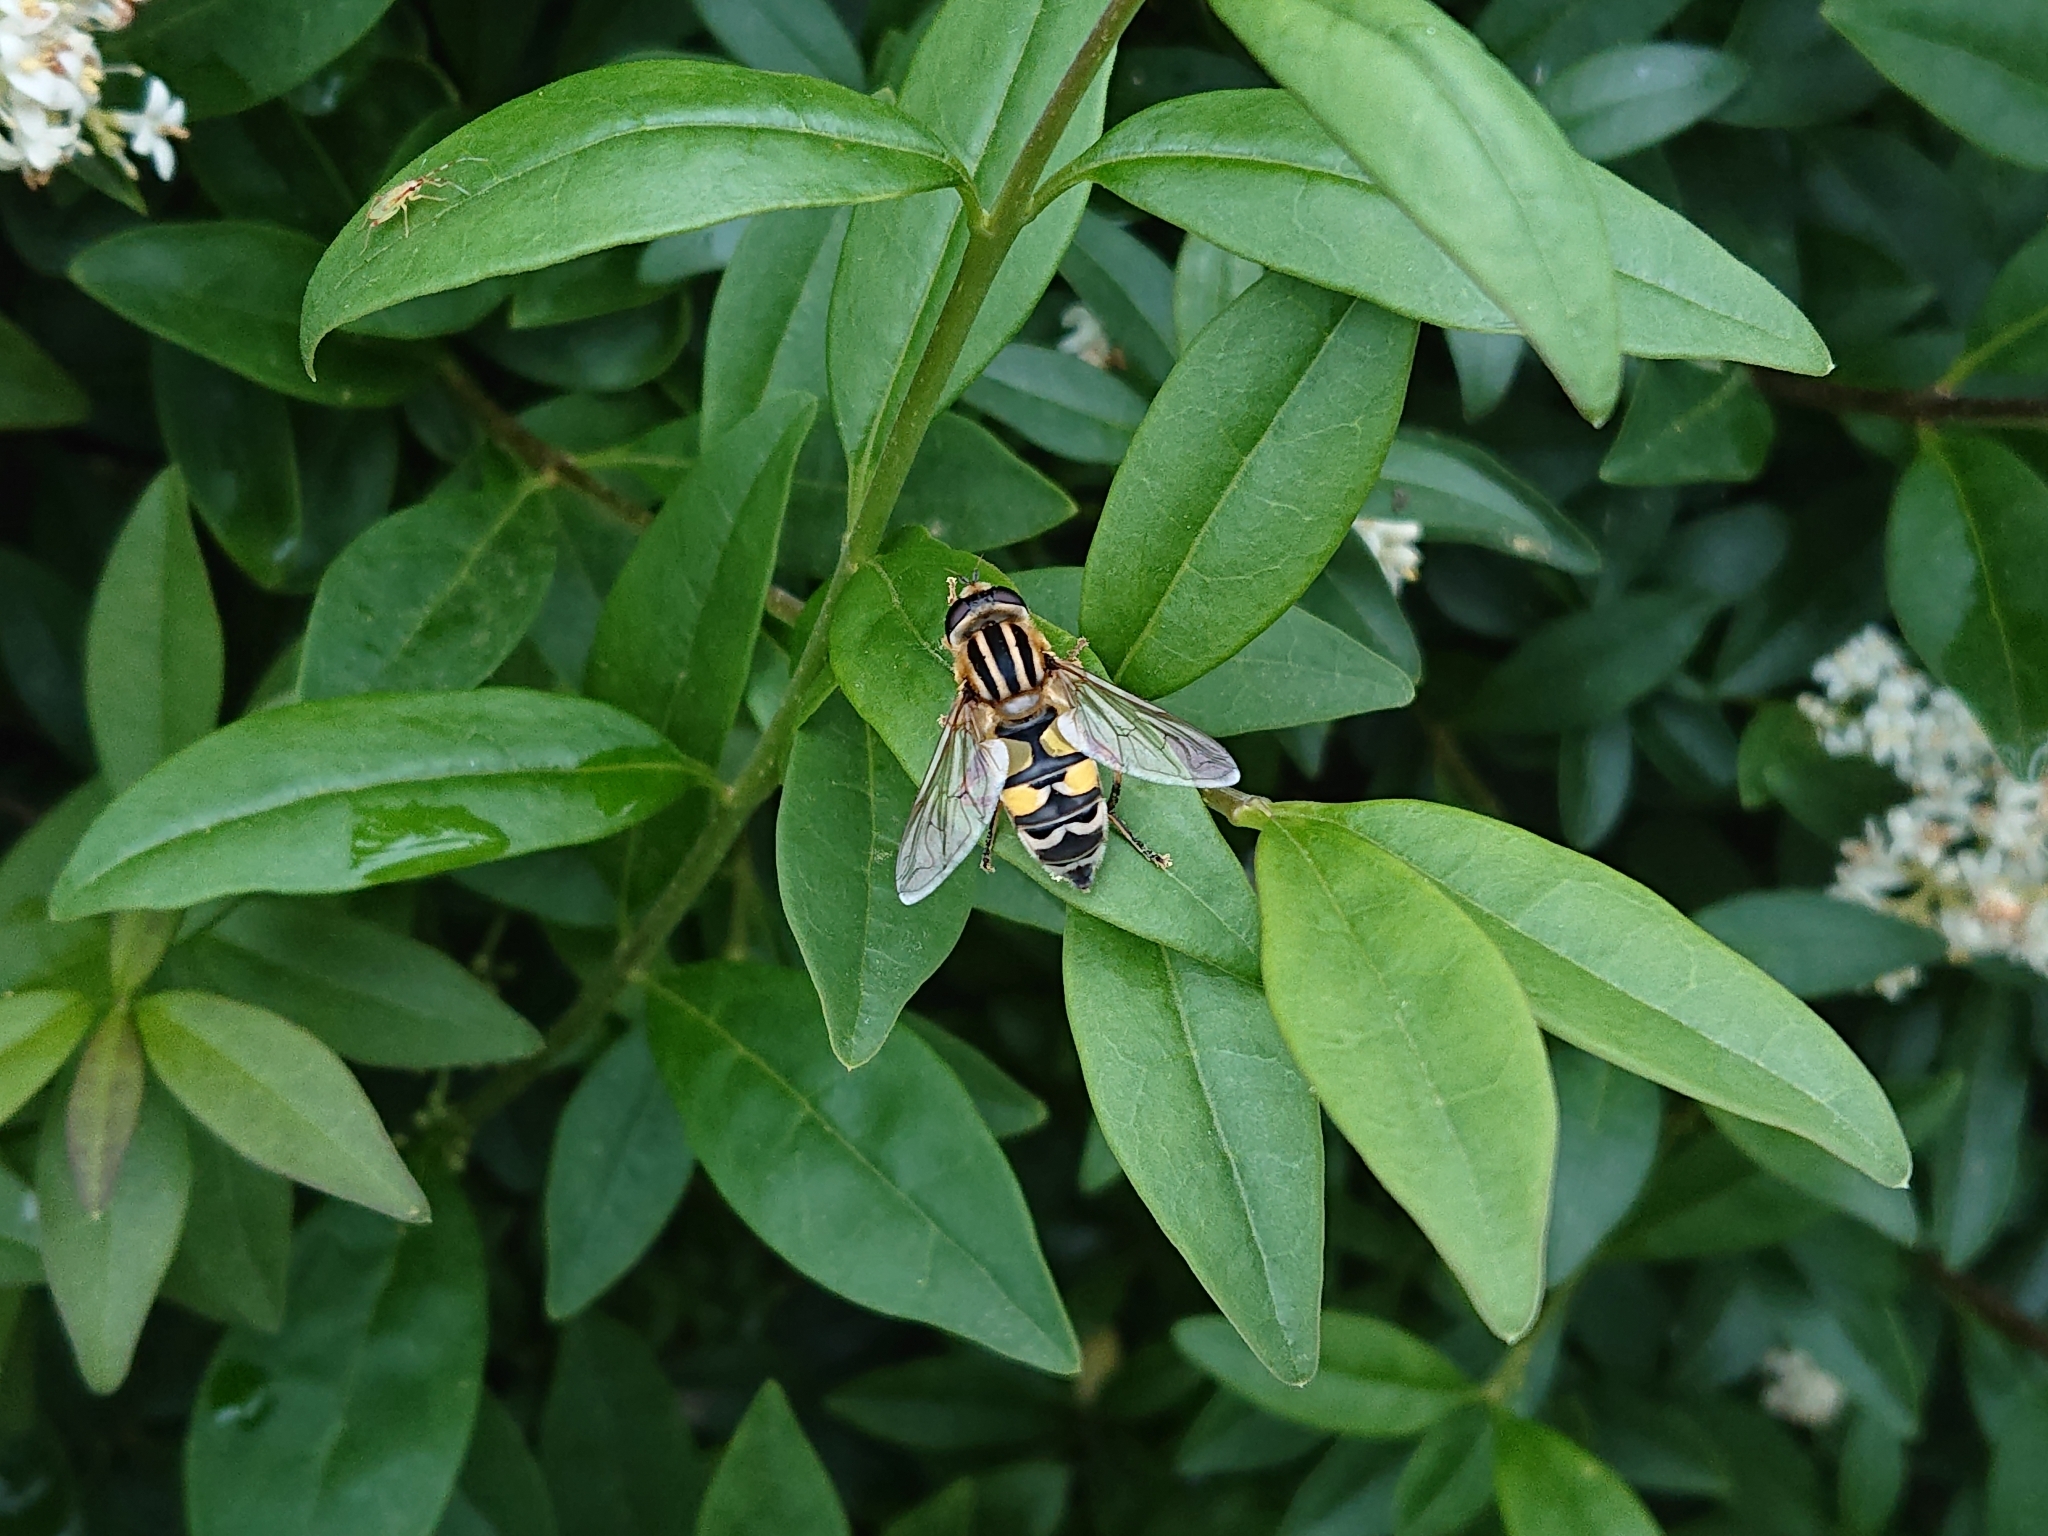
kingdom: Animalia
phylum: Arthropoda
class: Insecta
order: Diptera
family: Syrphidae
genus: Helophilus
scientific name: Helophilus trivittatus
